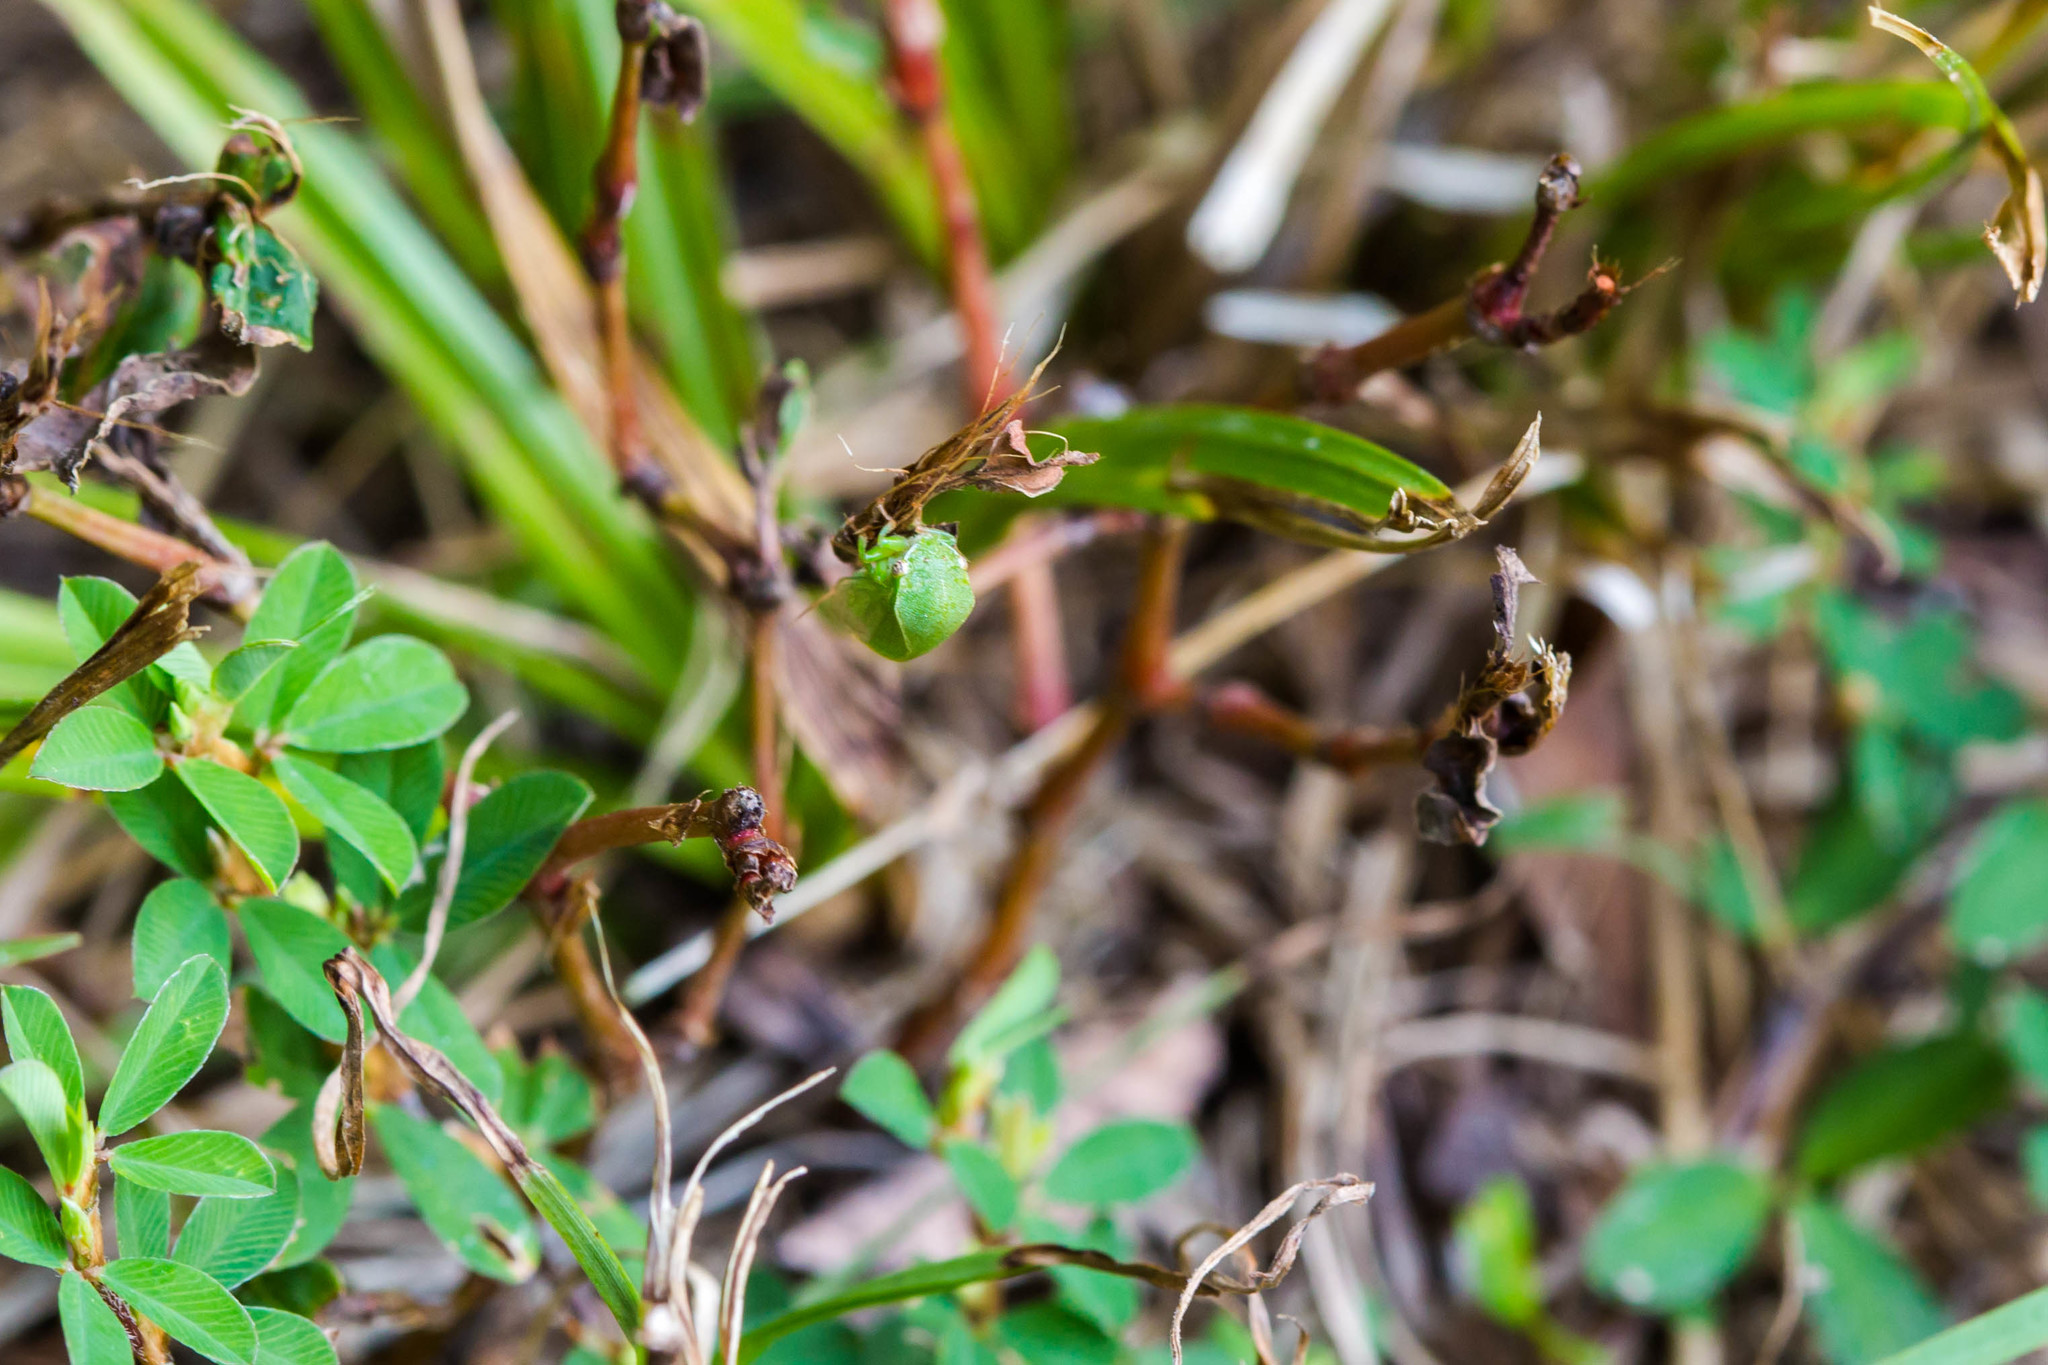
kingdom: Animalia
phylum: Arthropoda
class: Insecta
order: Hemiptera
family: Membracidae
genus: Spissistilus
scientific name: Spissistilus festina
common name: Membracid bug
